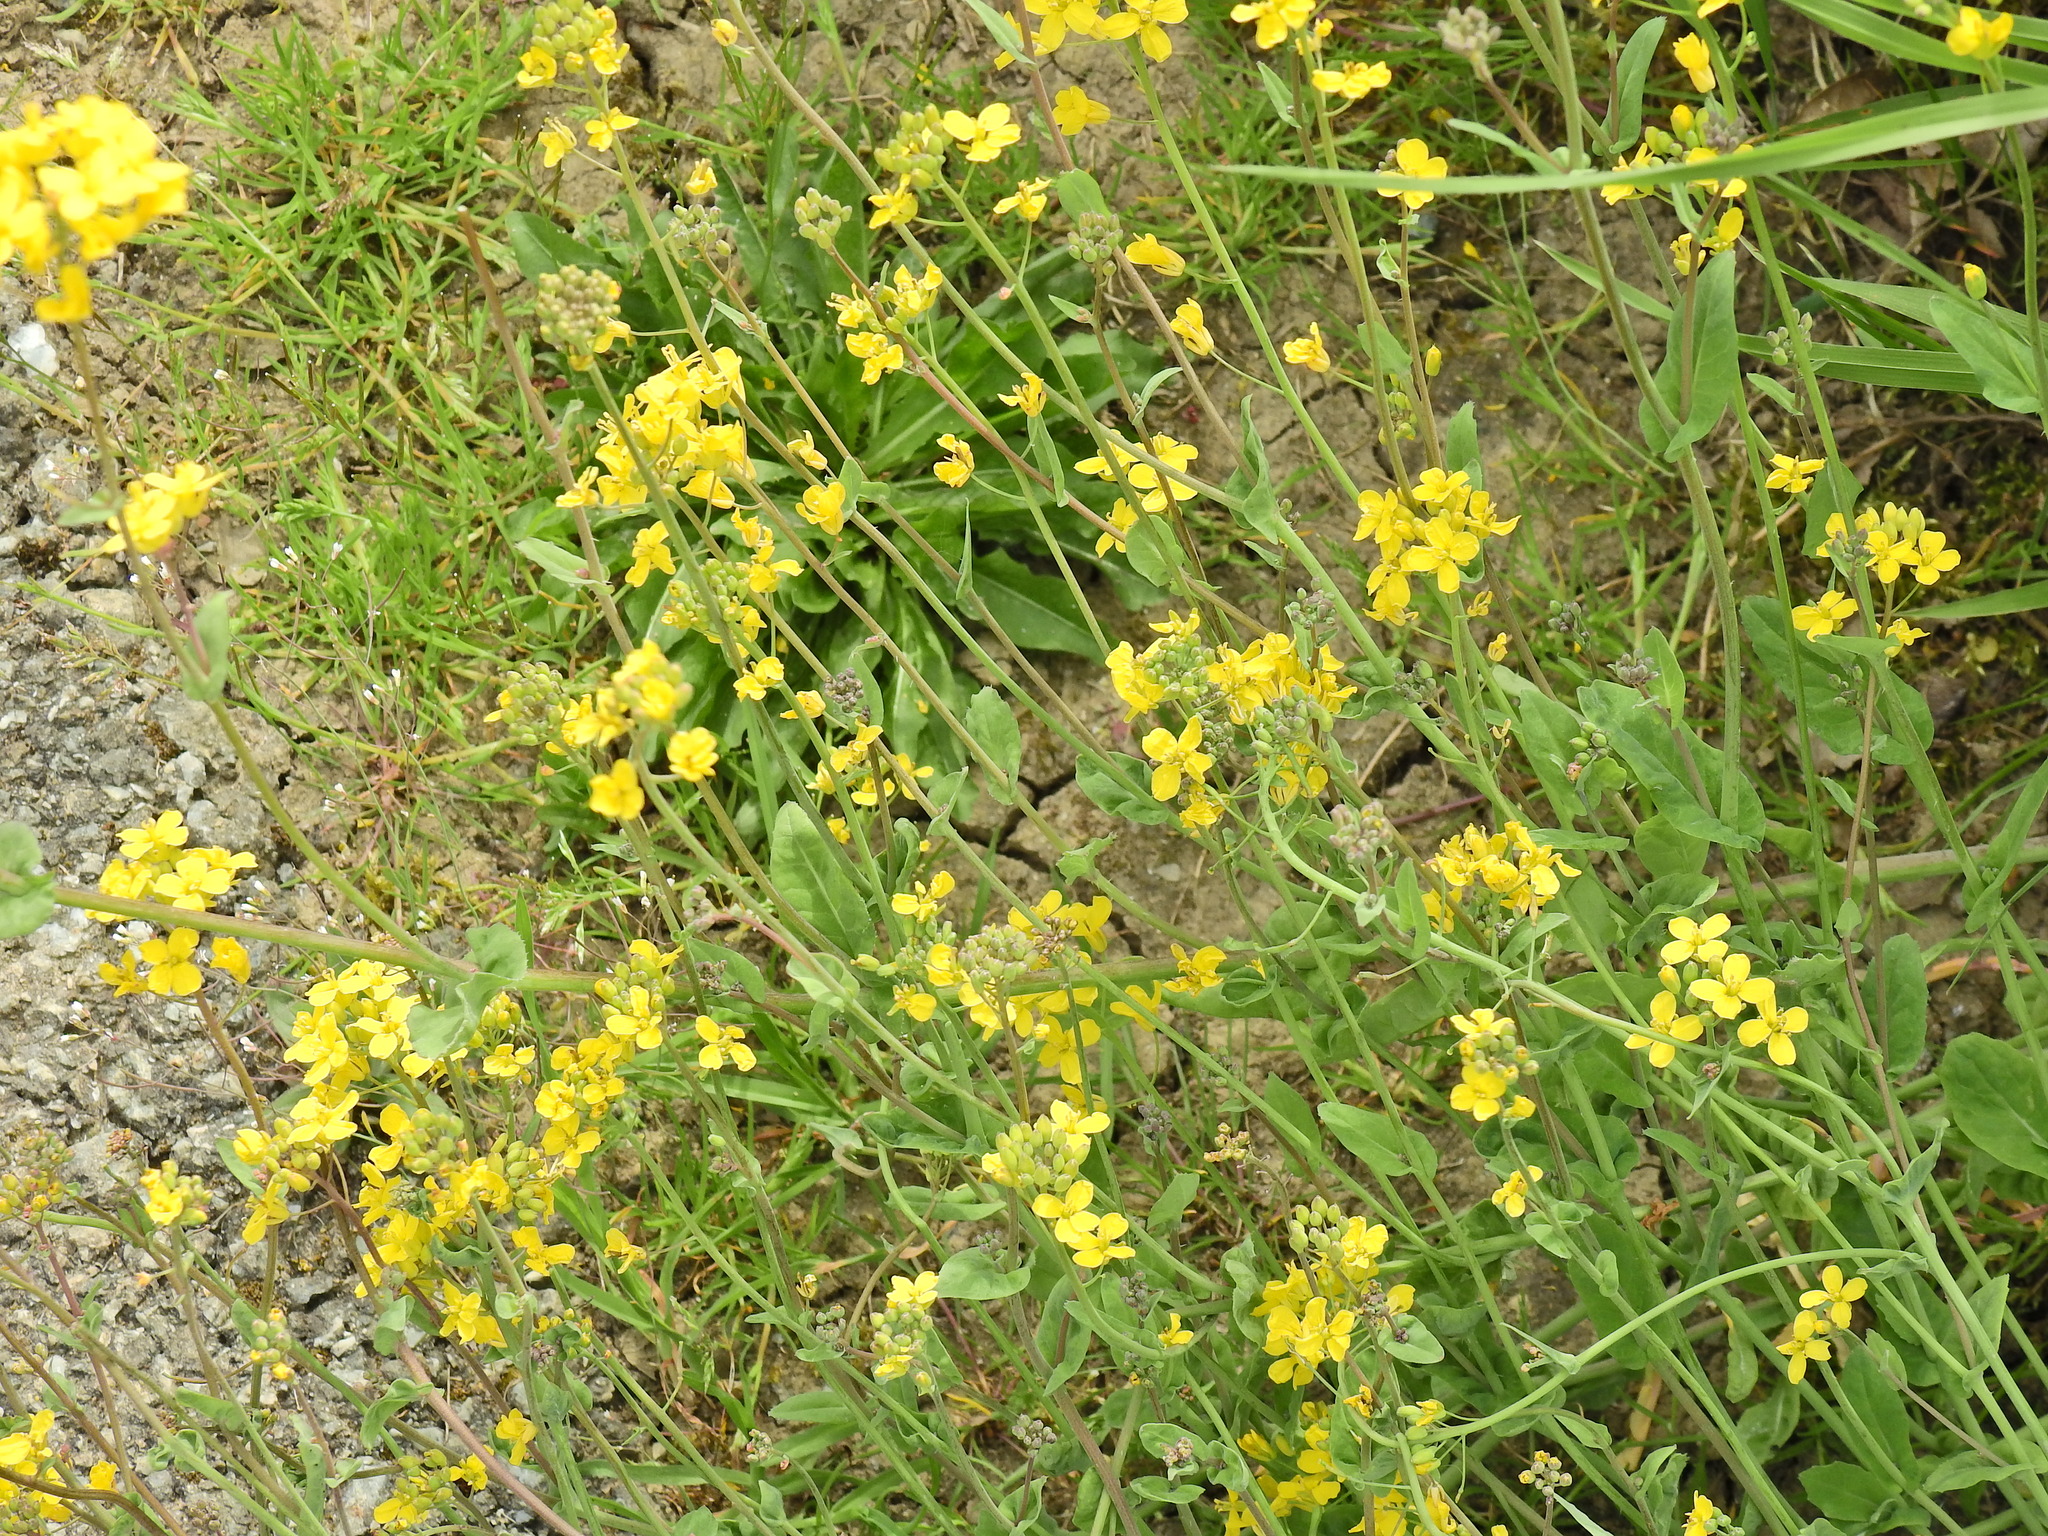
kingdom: Plantae
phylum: Tracheophyta
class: Magnoliopsida
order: Brassicales
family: Brassicaceae
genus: Brassica
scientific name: Brassica rapa
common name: Field mustard
